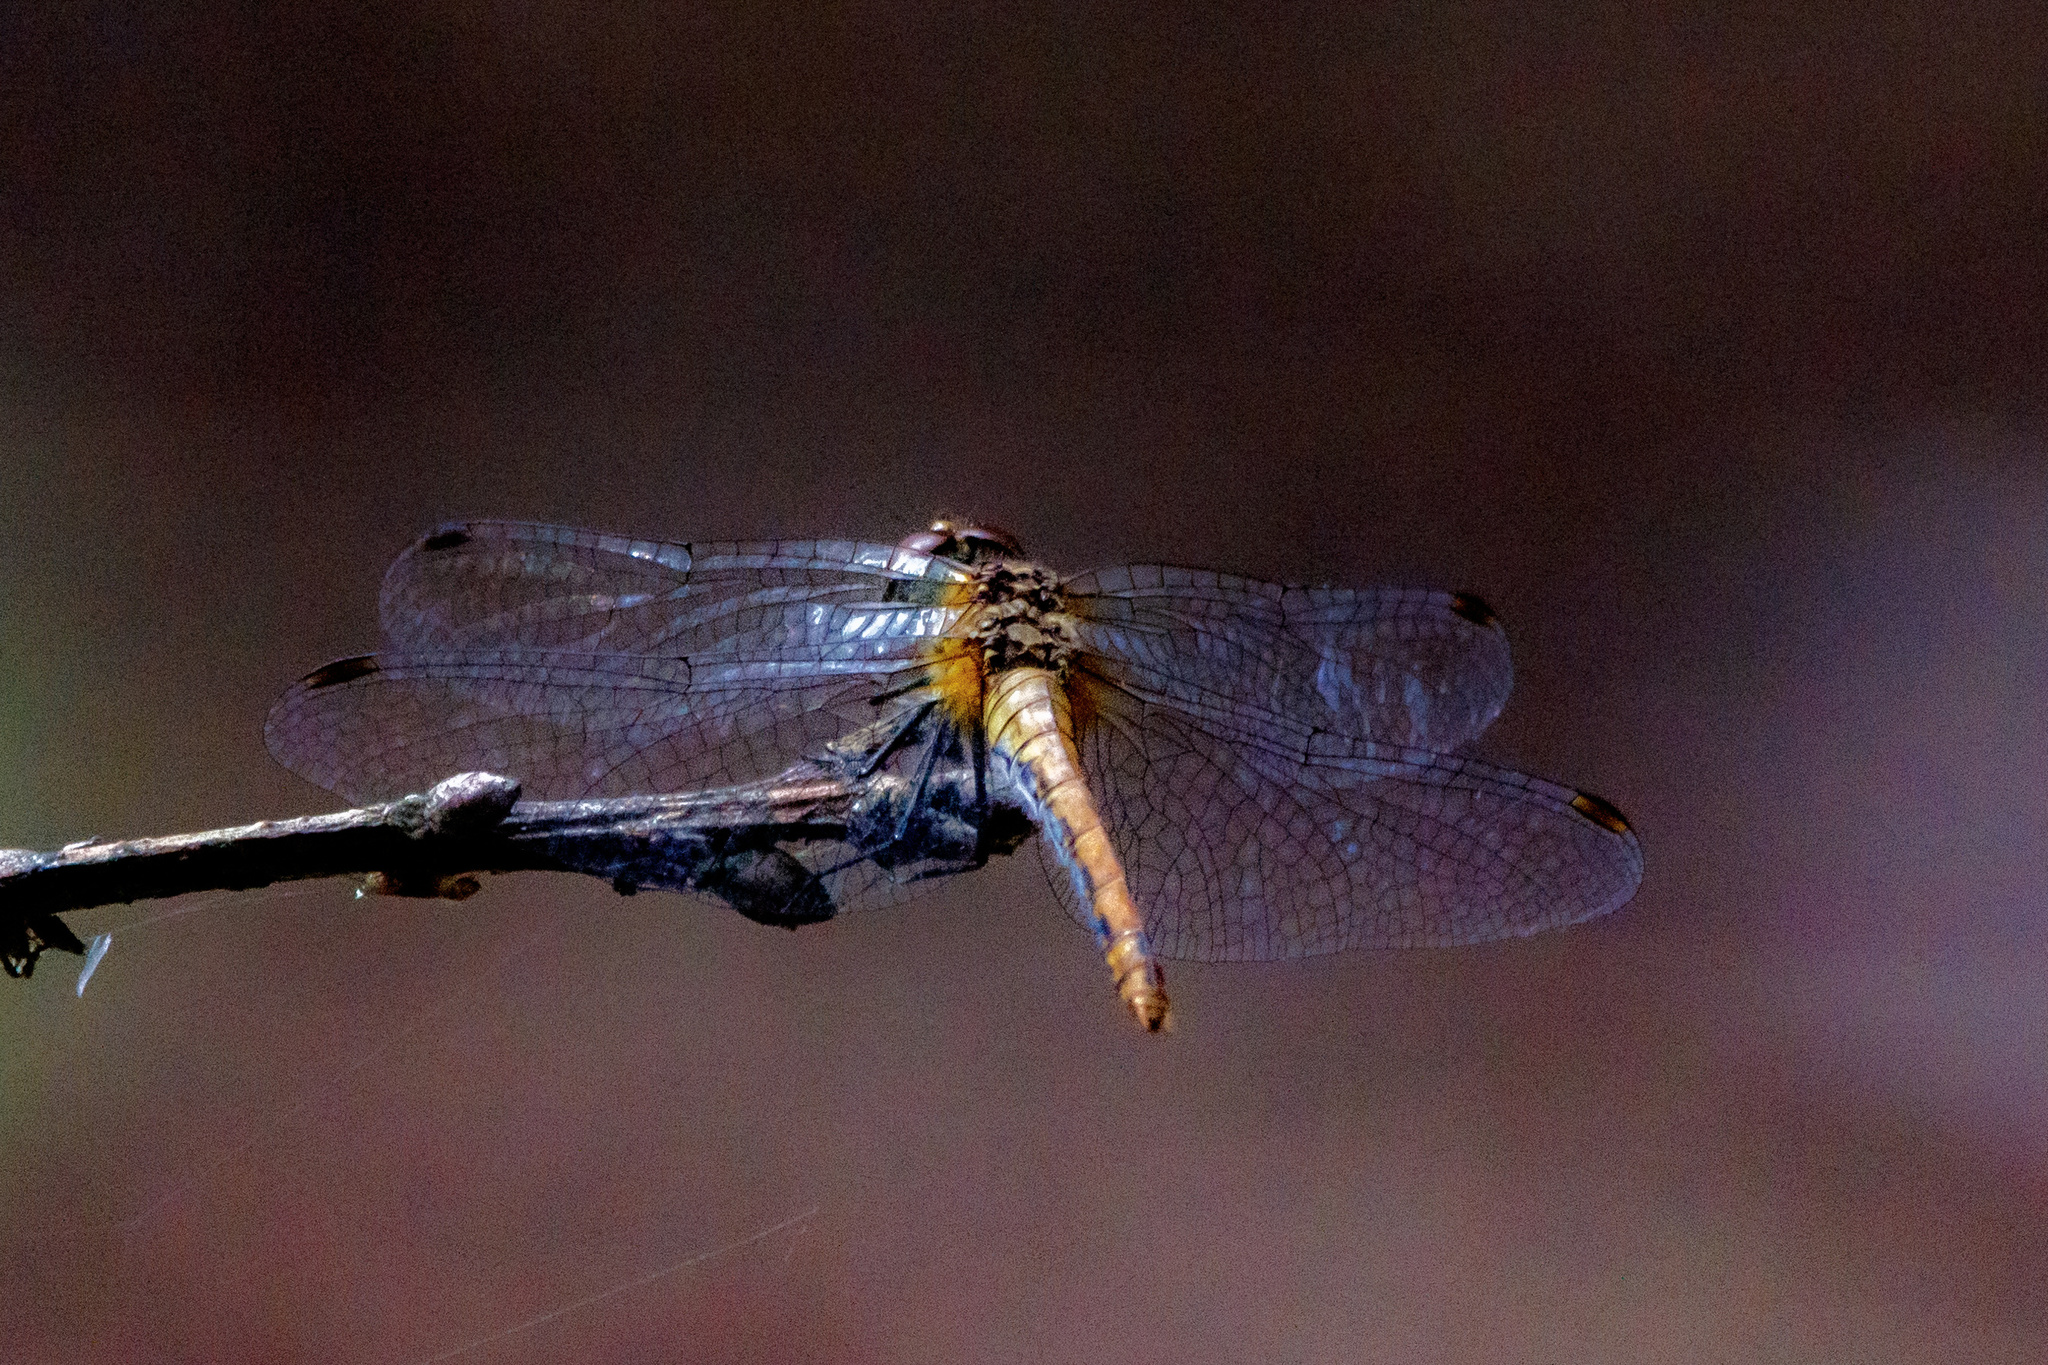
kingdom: Animalia
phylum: Arthropoda
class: Insecta
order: Odonata
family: Libellulidae
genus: Sympetrum
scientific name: Sympetrum sanguineum
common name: Ruddy darter
